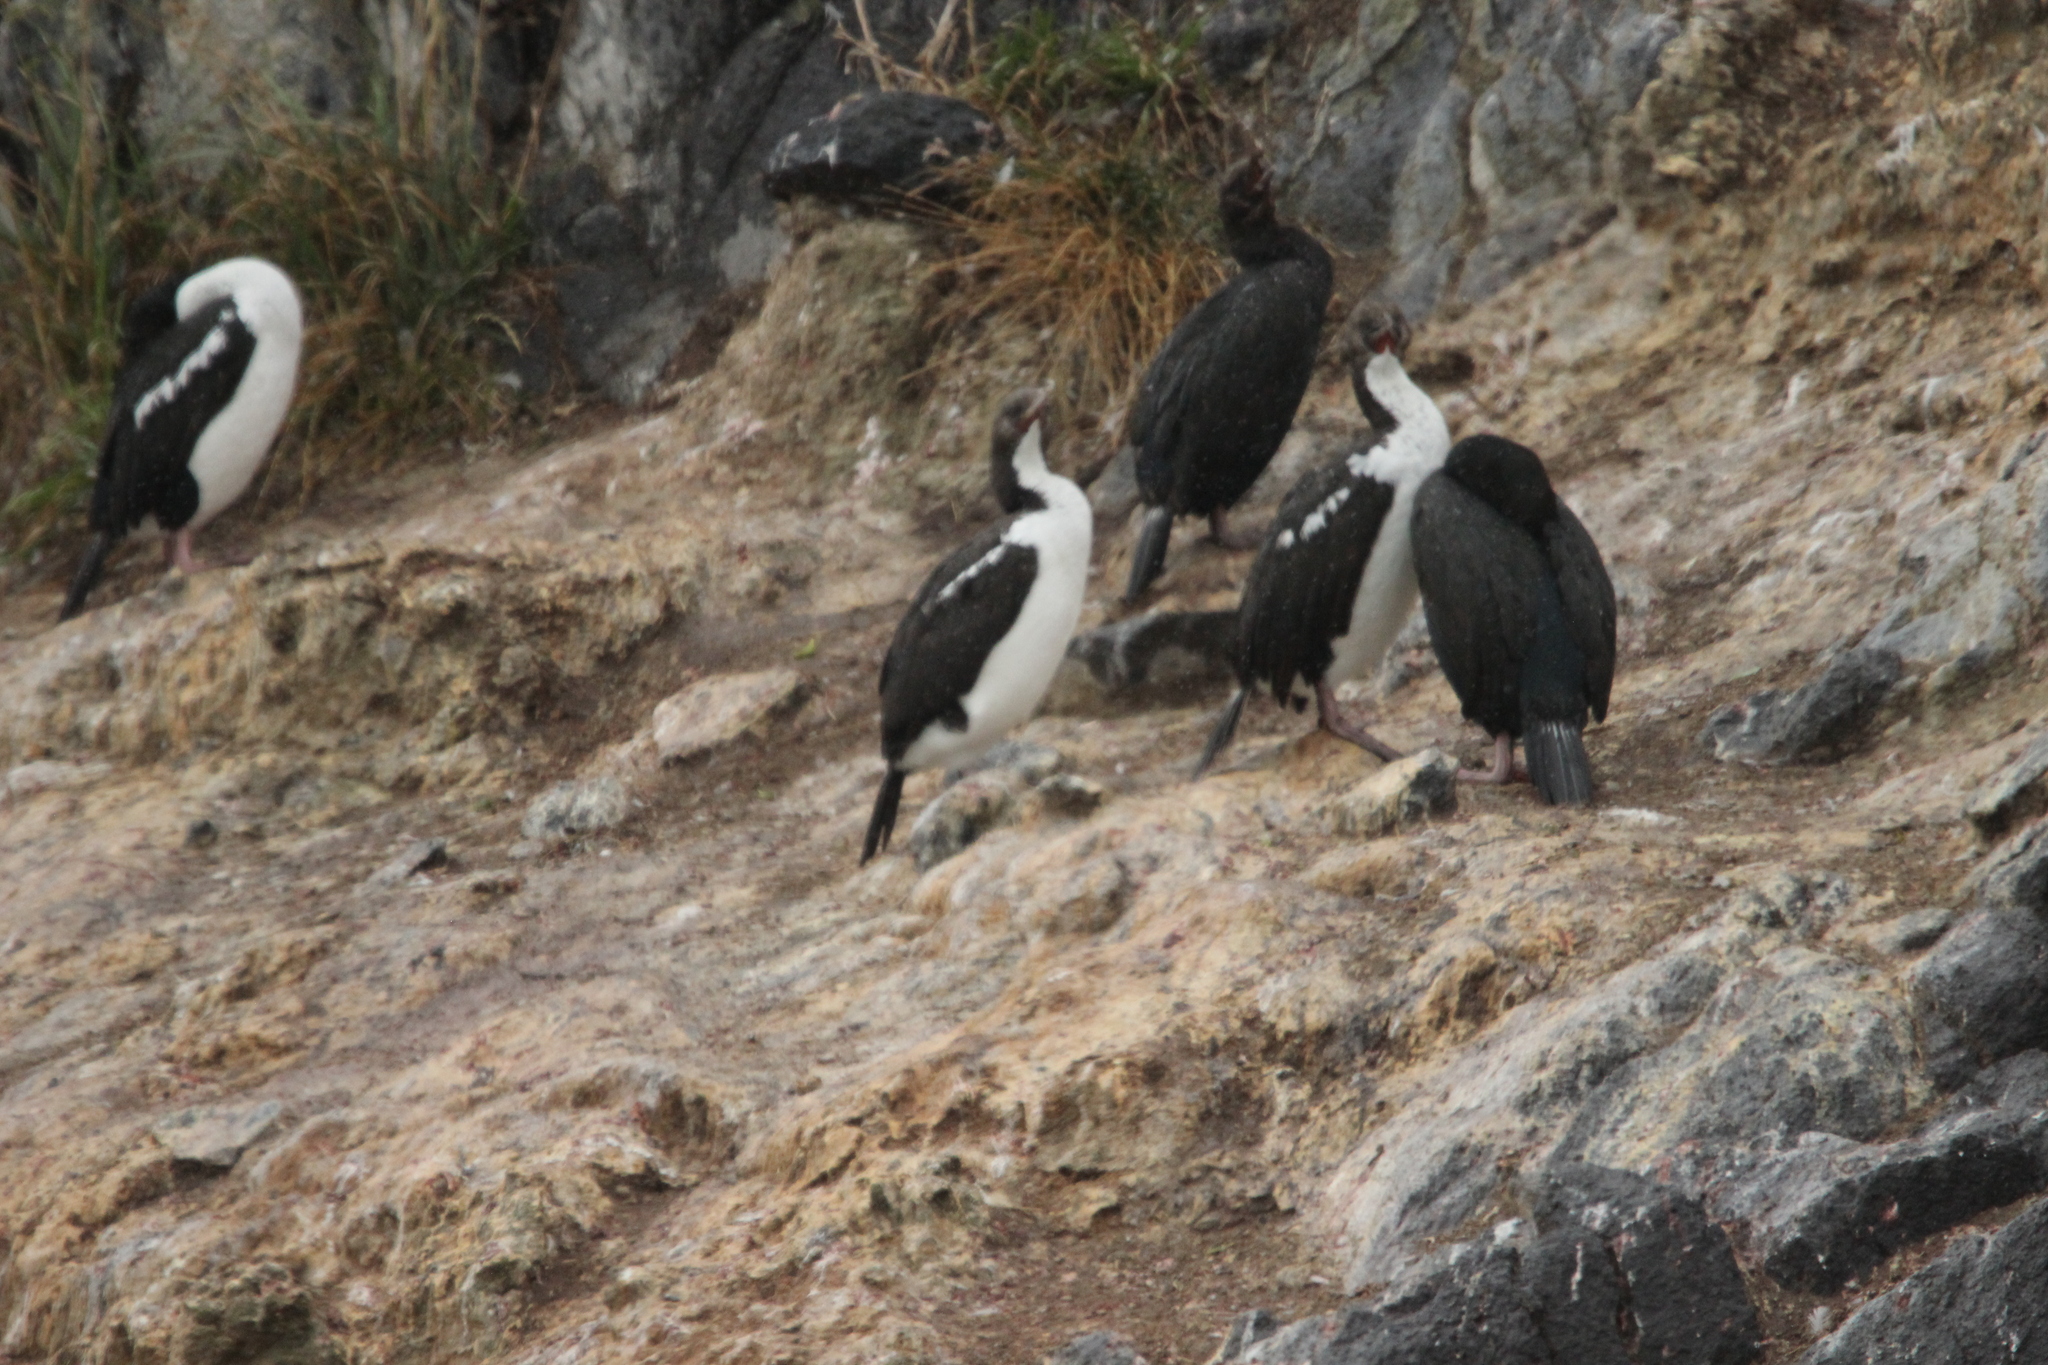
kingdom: Animalia
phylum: Chordata
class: Aves
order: Suliformes
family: Phalacrocoracidae
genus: Leucocarbo
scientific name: Leucocarbo chalconotus
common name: Stewart shag
